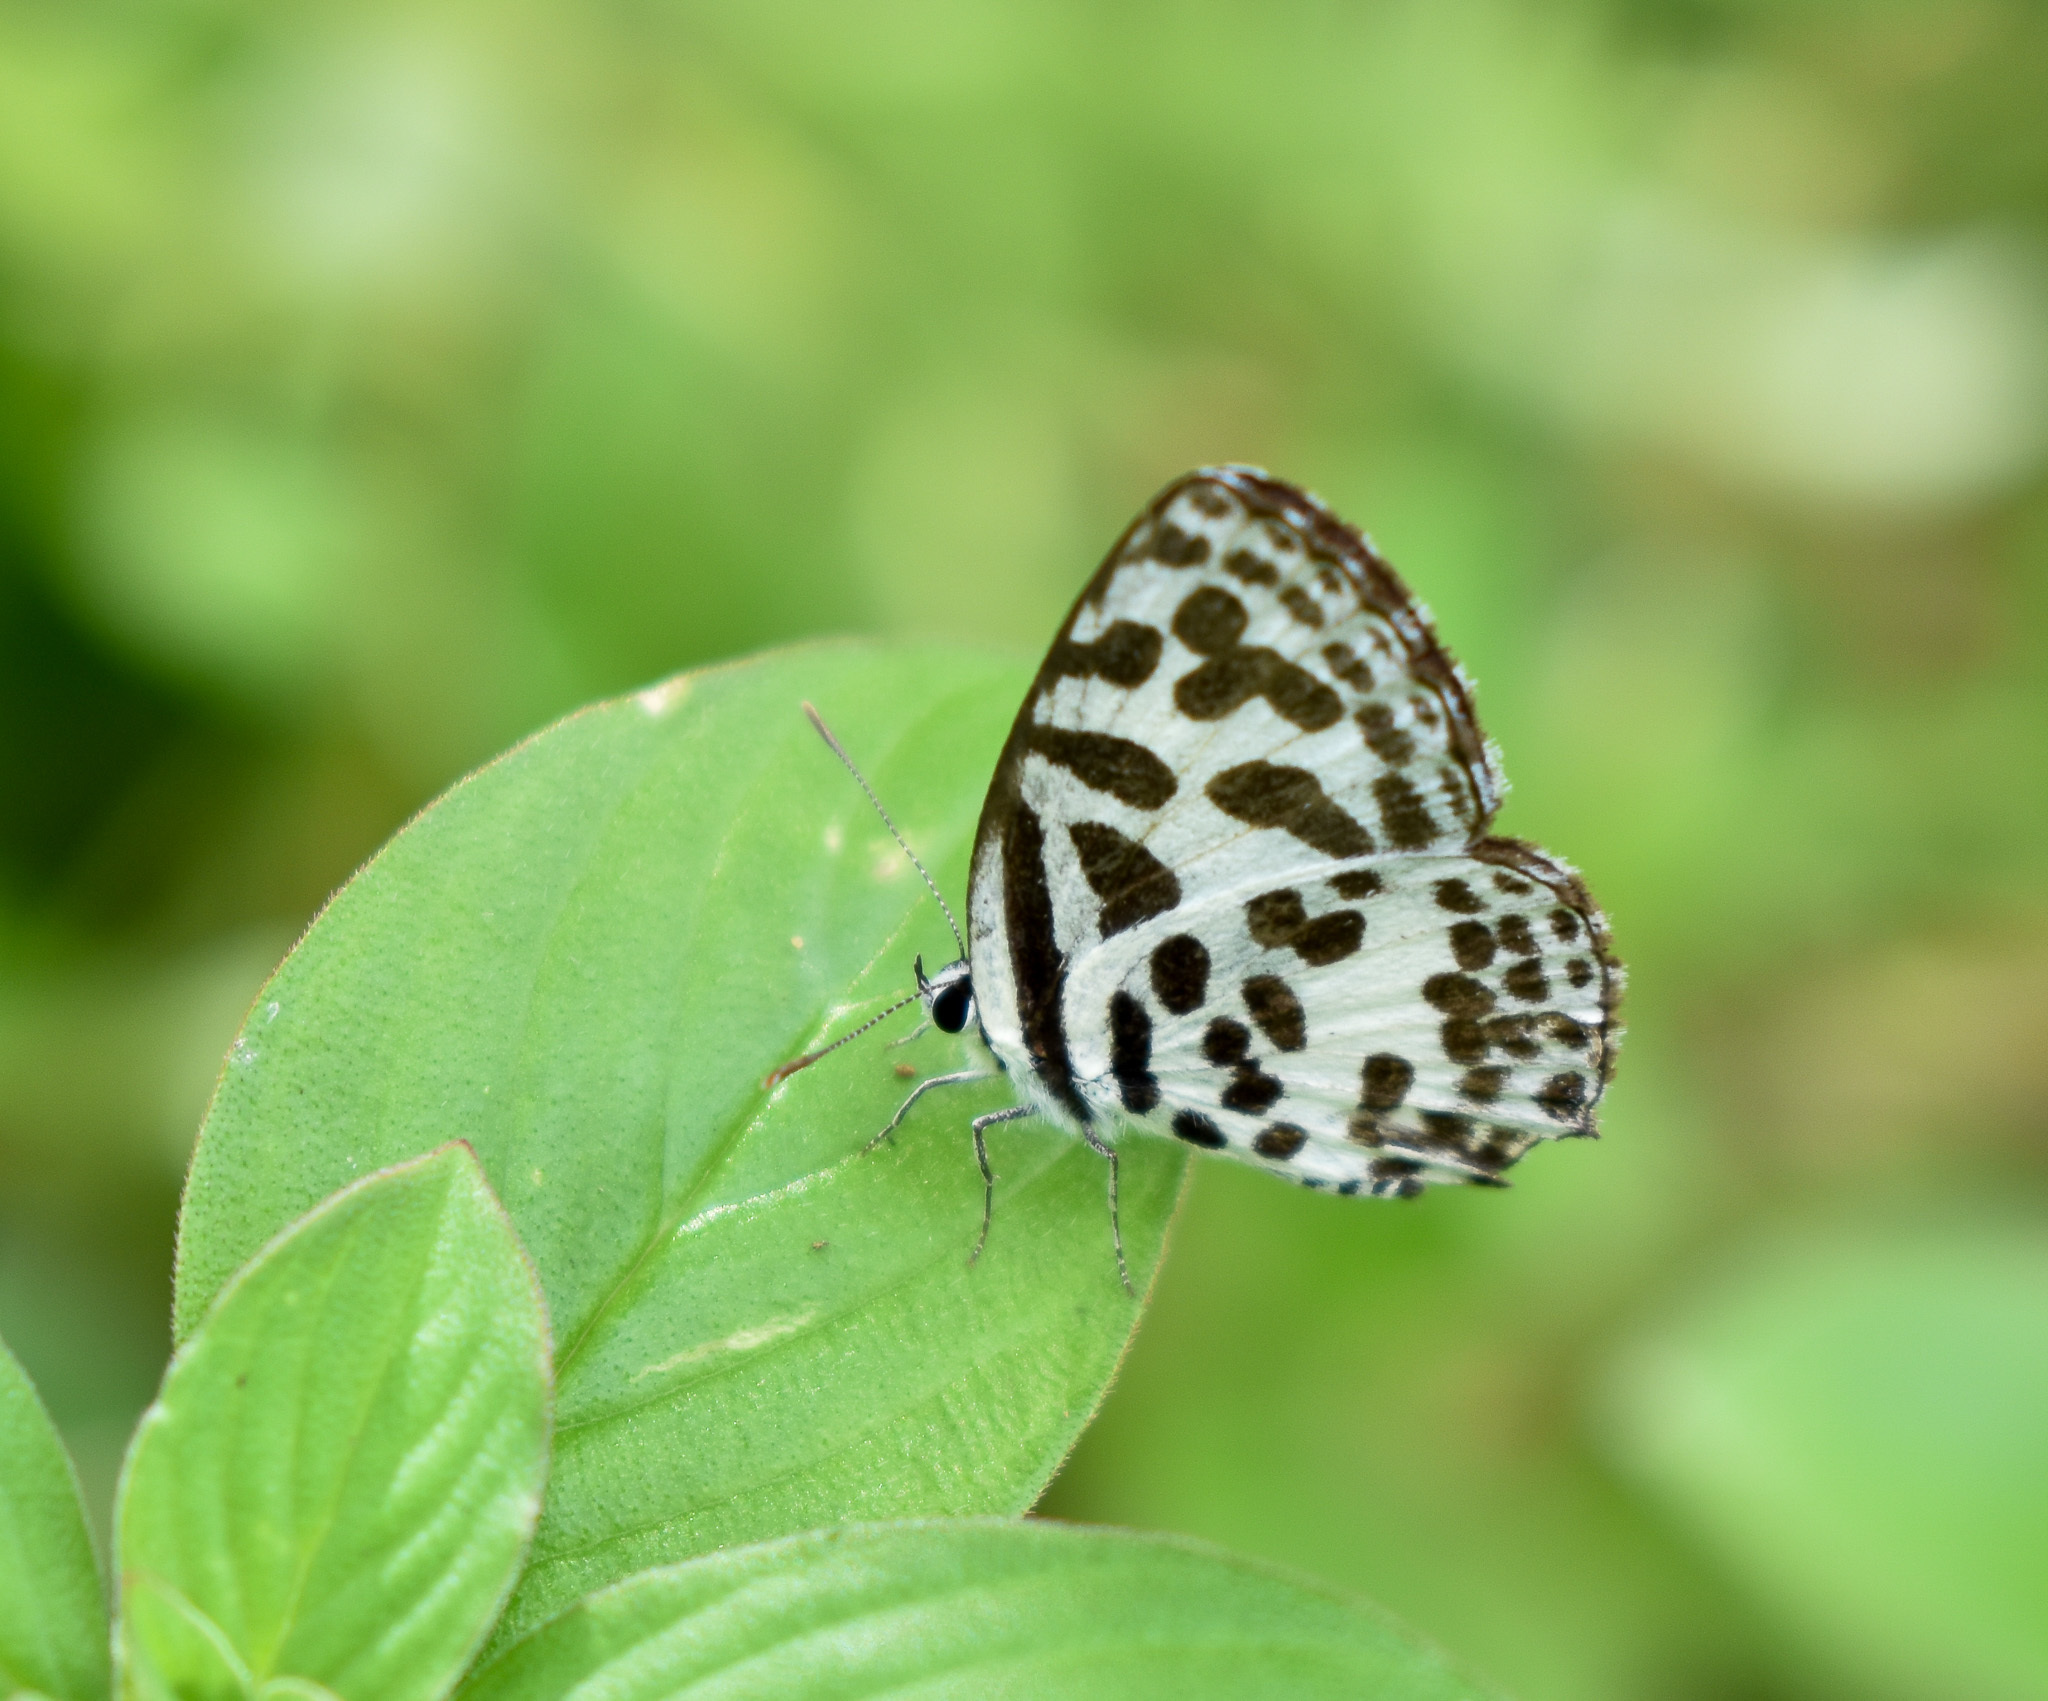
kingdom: Animalia
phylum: Arthropoda
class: Insecta
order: Lepidoptera
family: Lycaenidae
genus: Castalius
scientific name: Castalius rosimon
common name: Common pierrot
